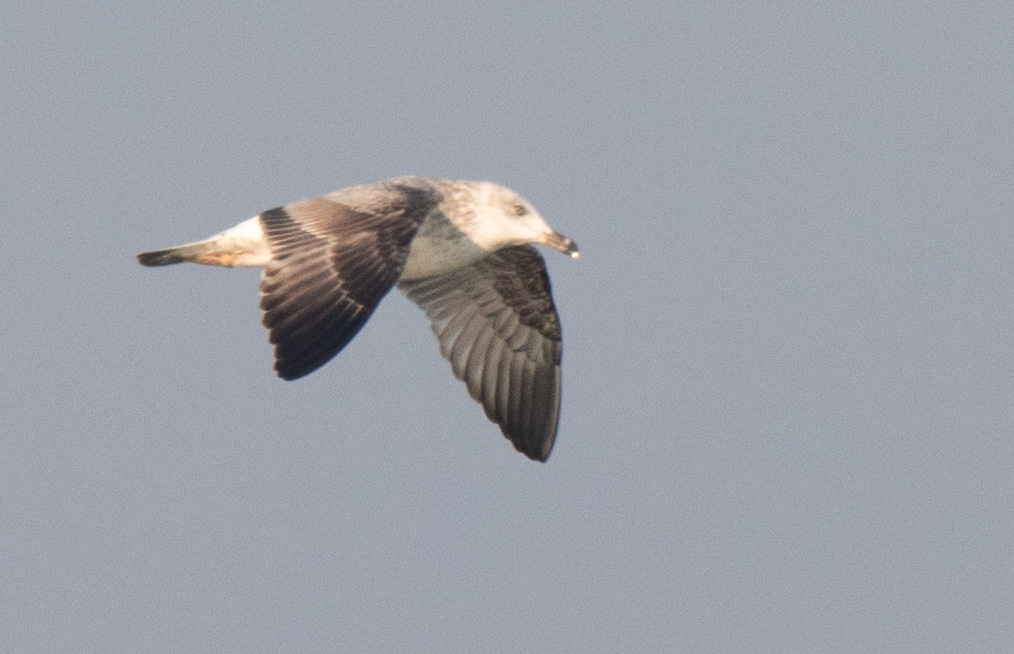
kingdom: Animalia
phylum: Chordata
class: Aves
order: Charadriiformes
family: Laridae
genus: Larus
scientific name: Larus michahellis
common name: Yellow-legged gull
